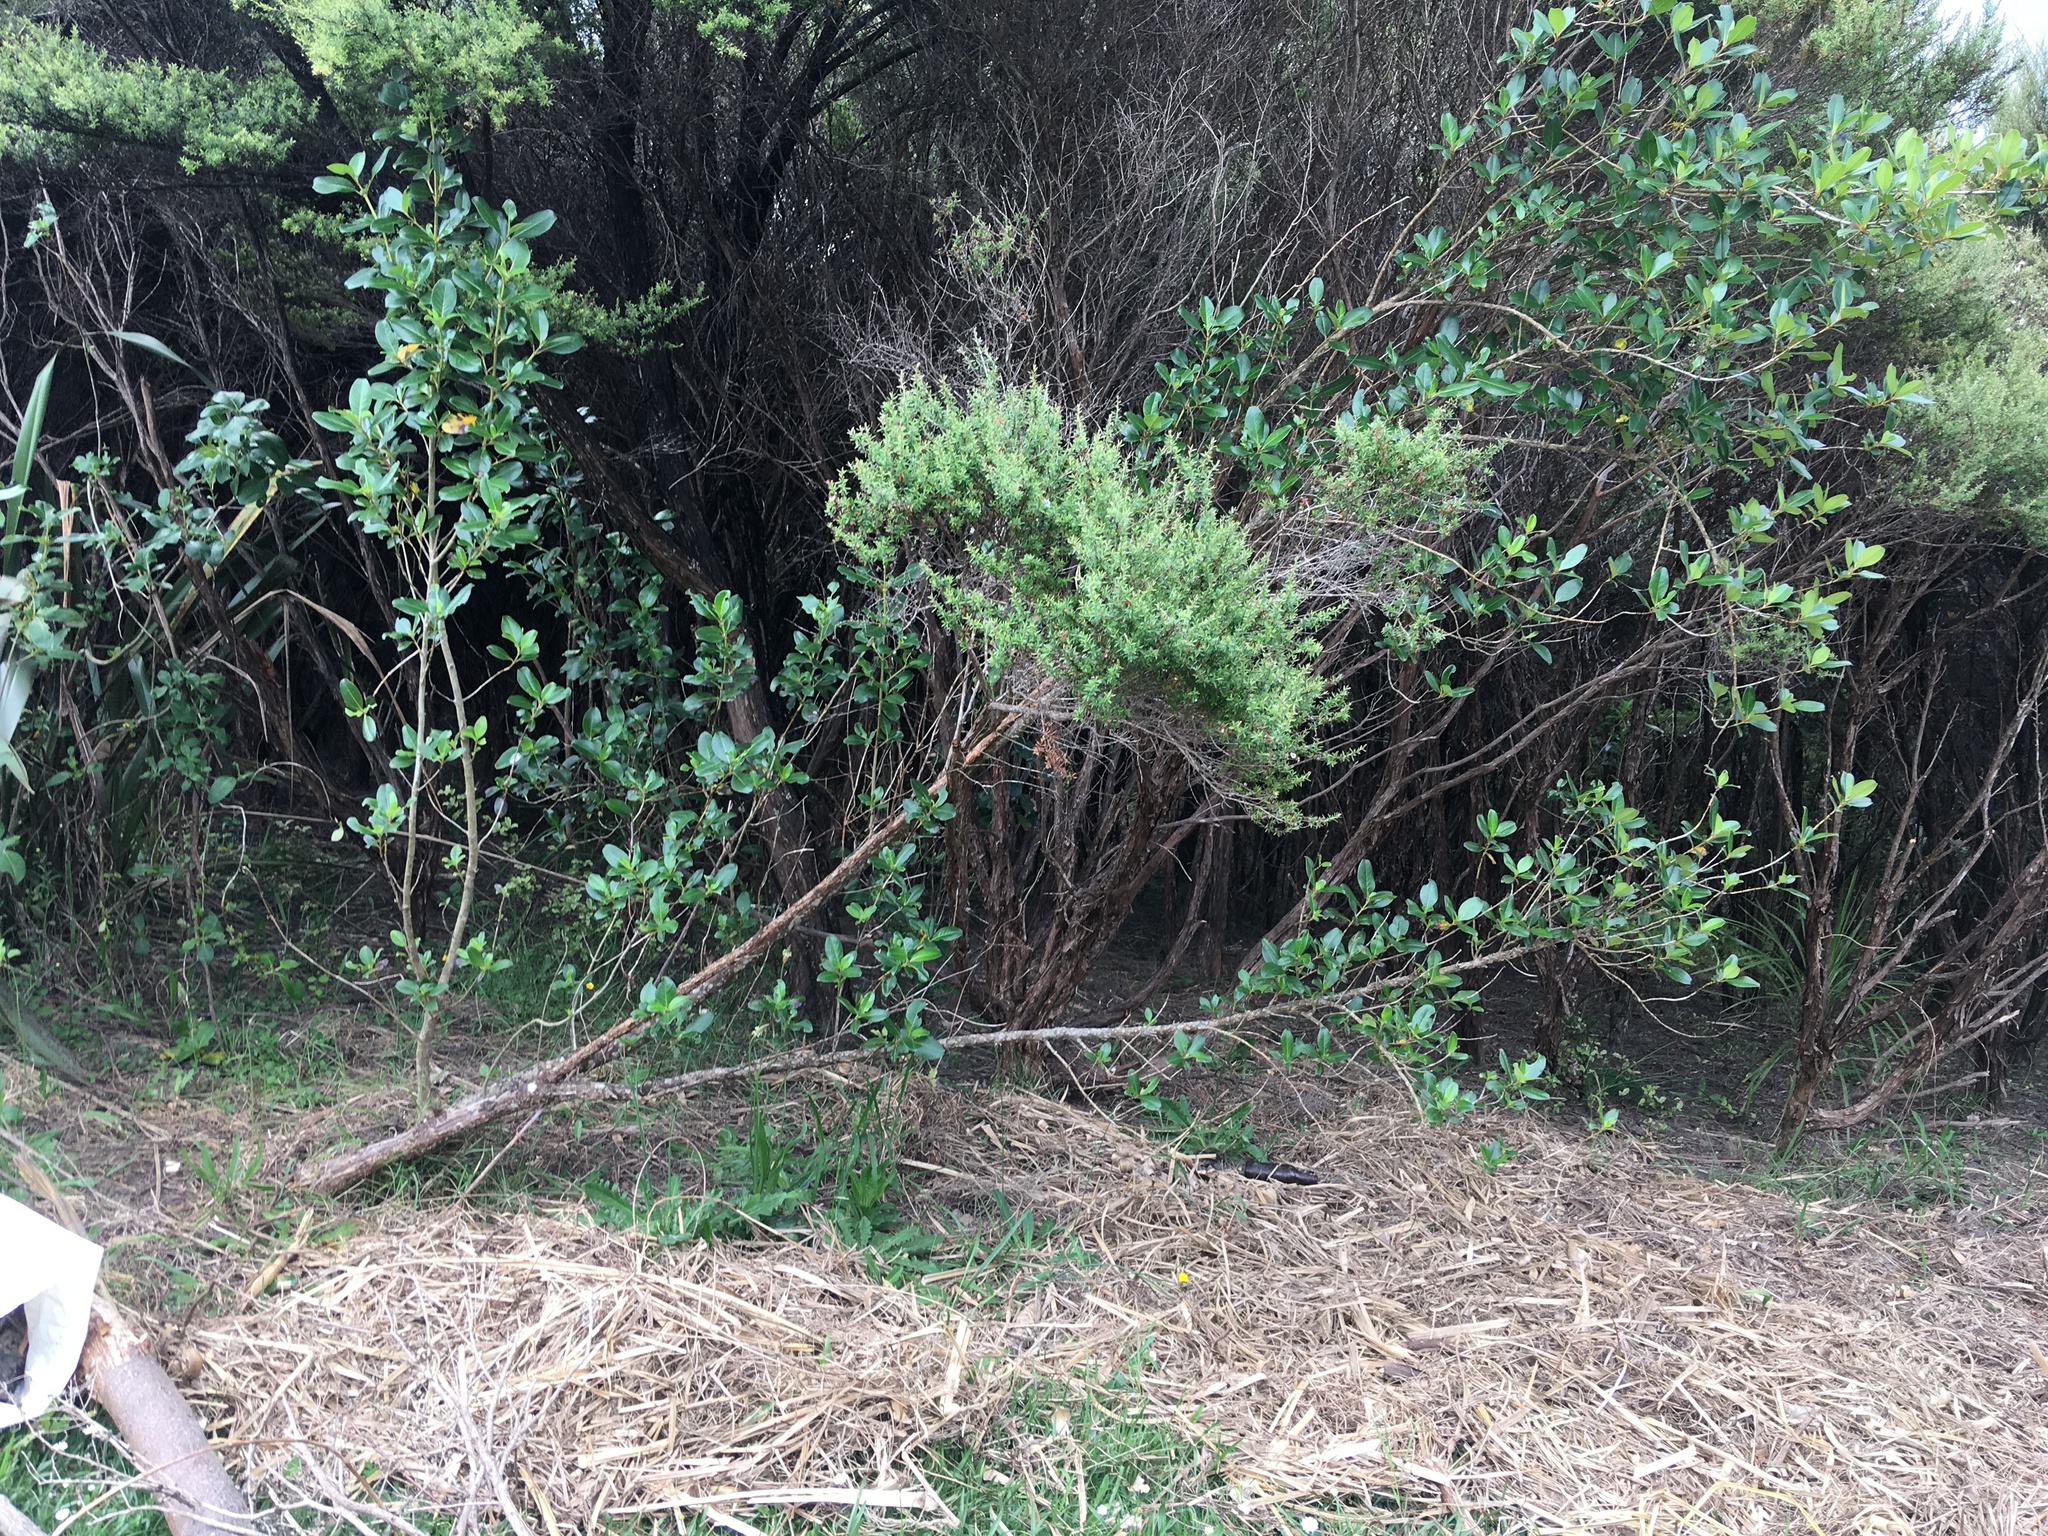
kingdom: Plantae
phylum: Tracheophyta
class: Magnoliopsida
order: Myrtales
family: Myrtaceae
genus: Leptospermum
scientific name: Leptospermum scoparium
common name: Broom tea-tree
